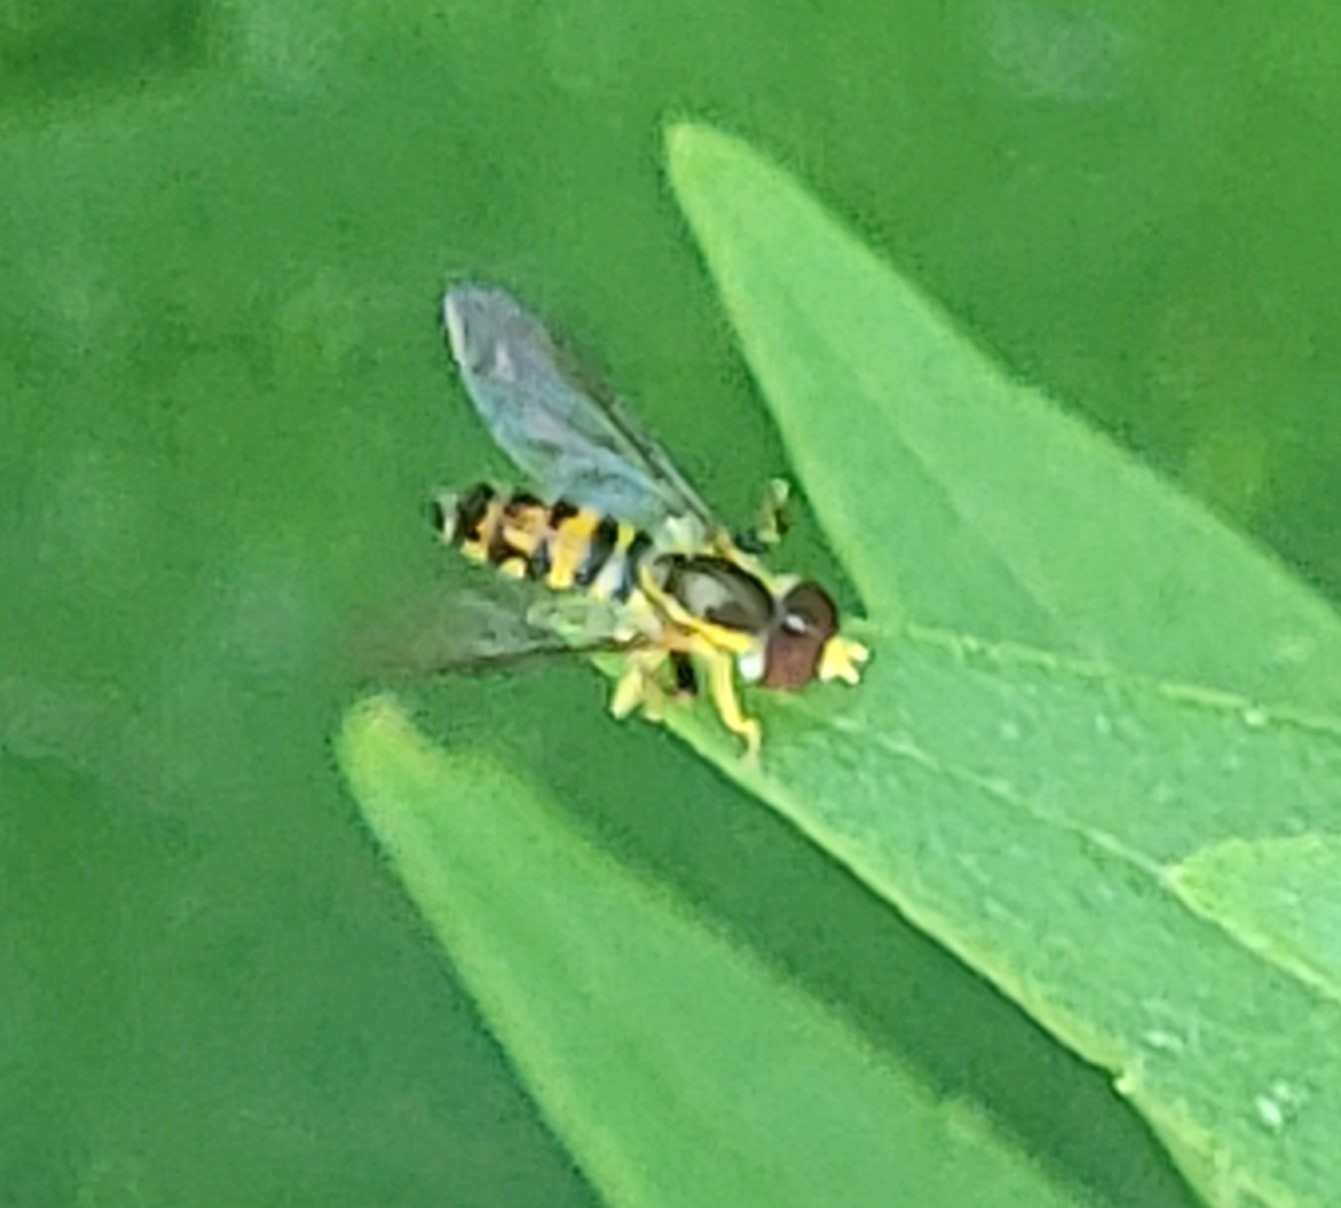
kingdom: Animalia
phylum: Arthropoda
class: Insecta
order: Diptera
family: Syrphidae
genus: Toxomerus
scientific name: Toxomerus geminatus
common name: Eastern calligrapher
